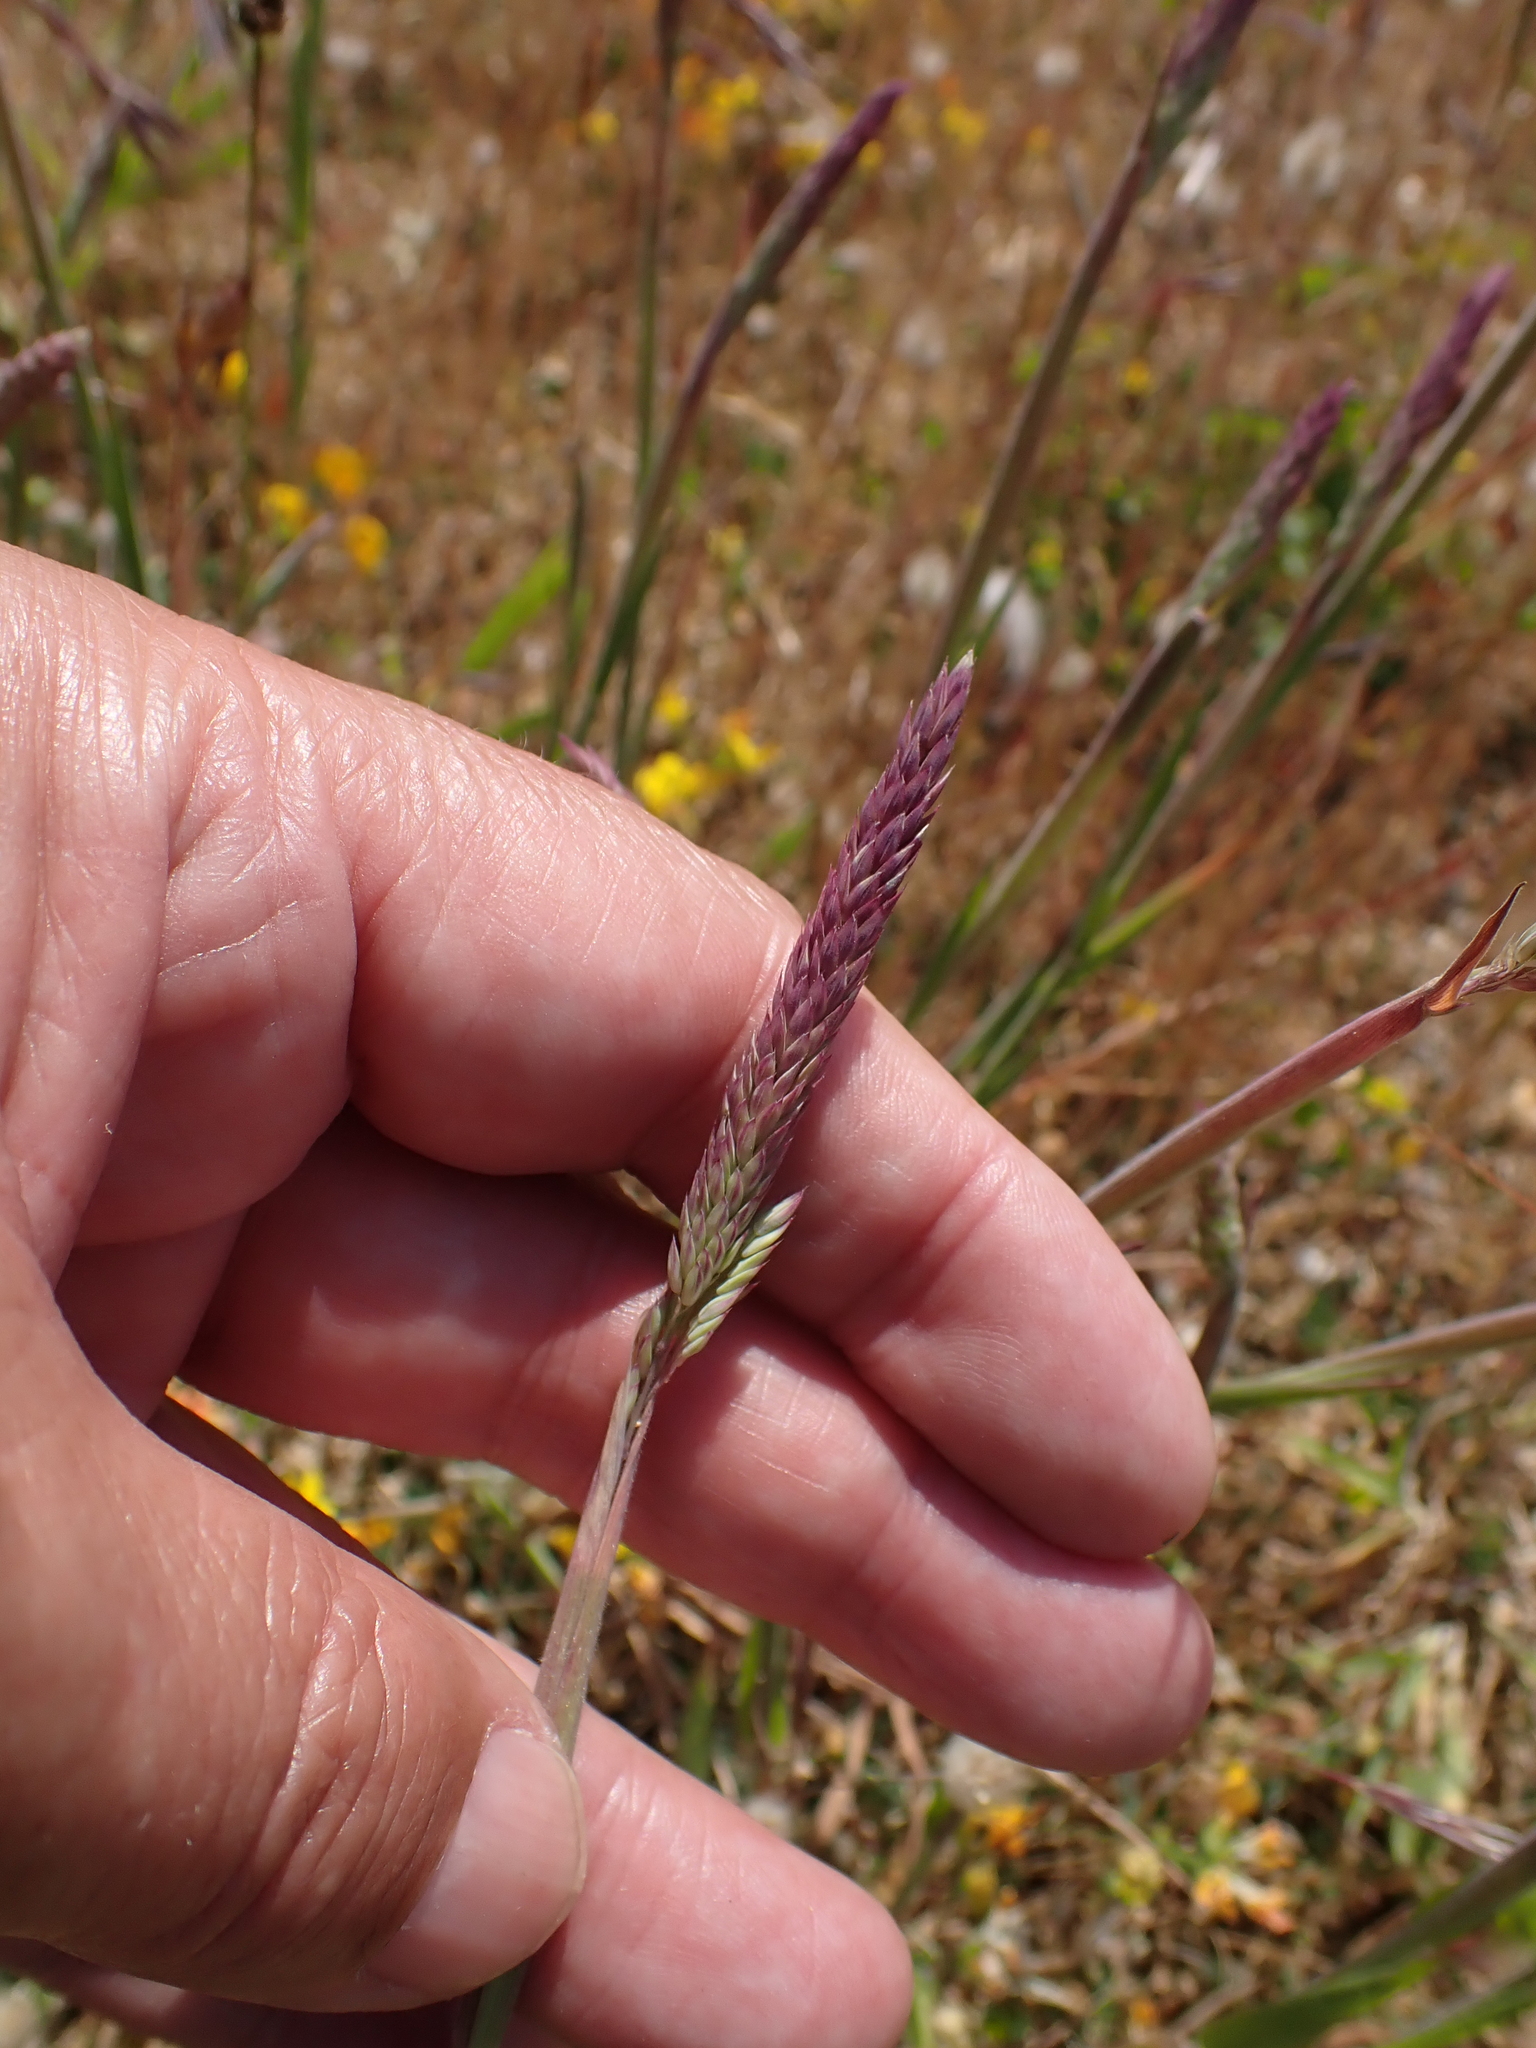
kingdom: Plantae
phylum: Tracheophyta
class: Liliopsida
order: Poales
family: Poaceae
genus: Holcus
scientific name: Holcus lanatus
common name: Yorkshire-fog
